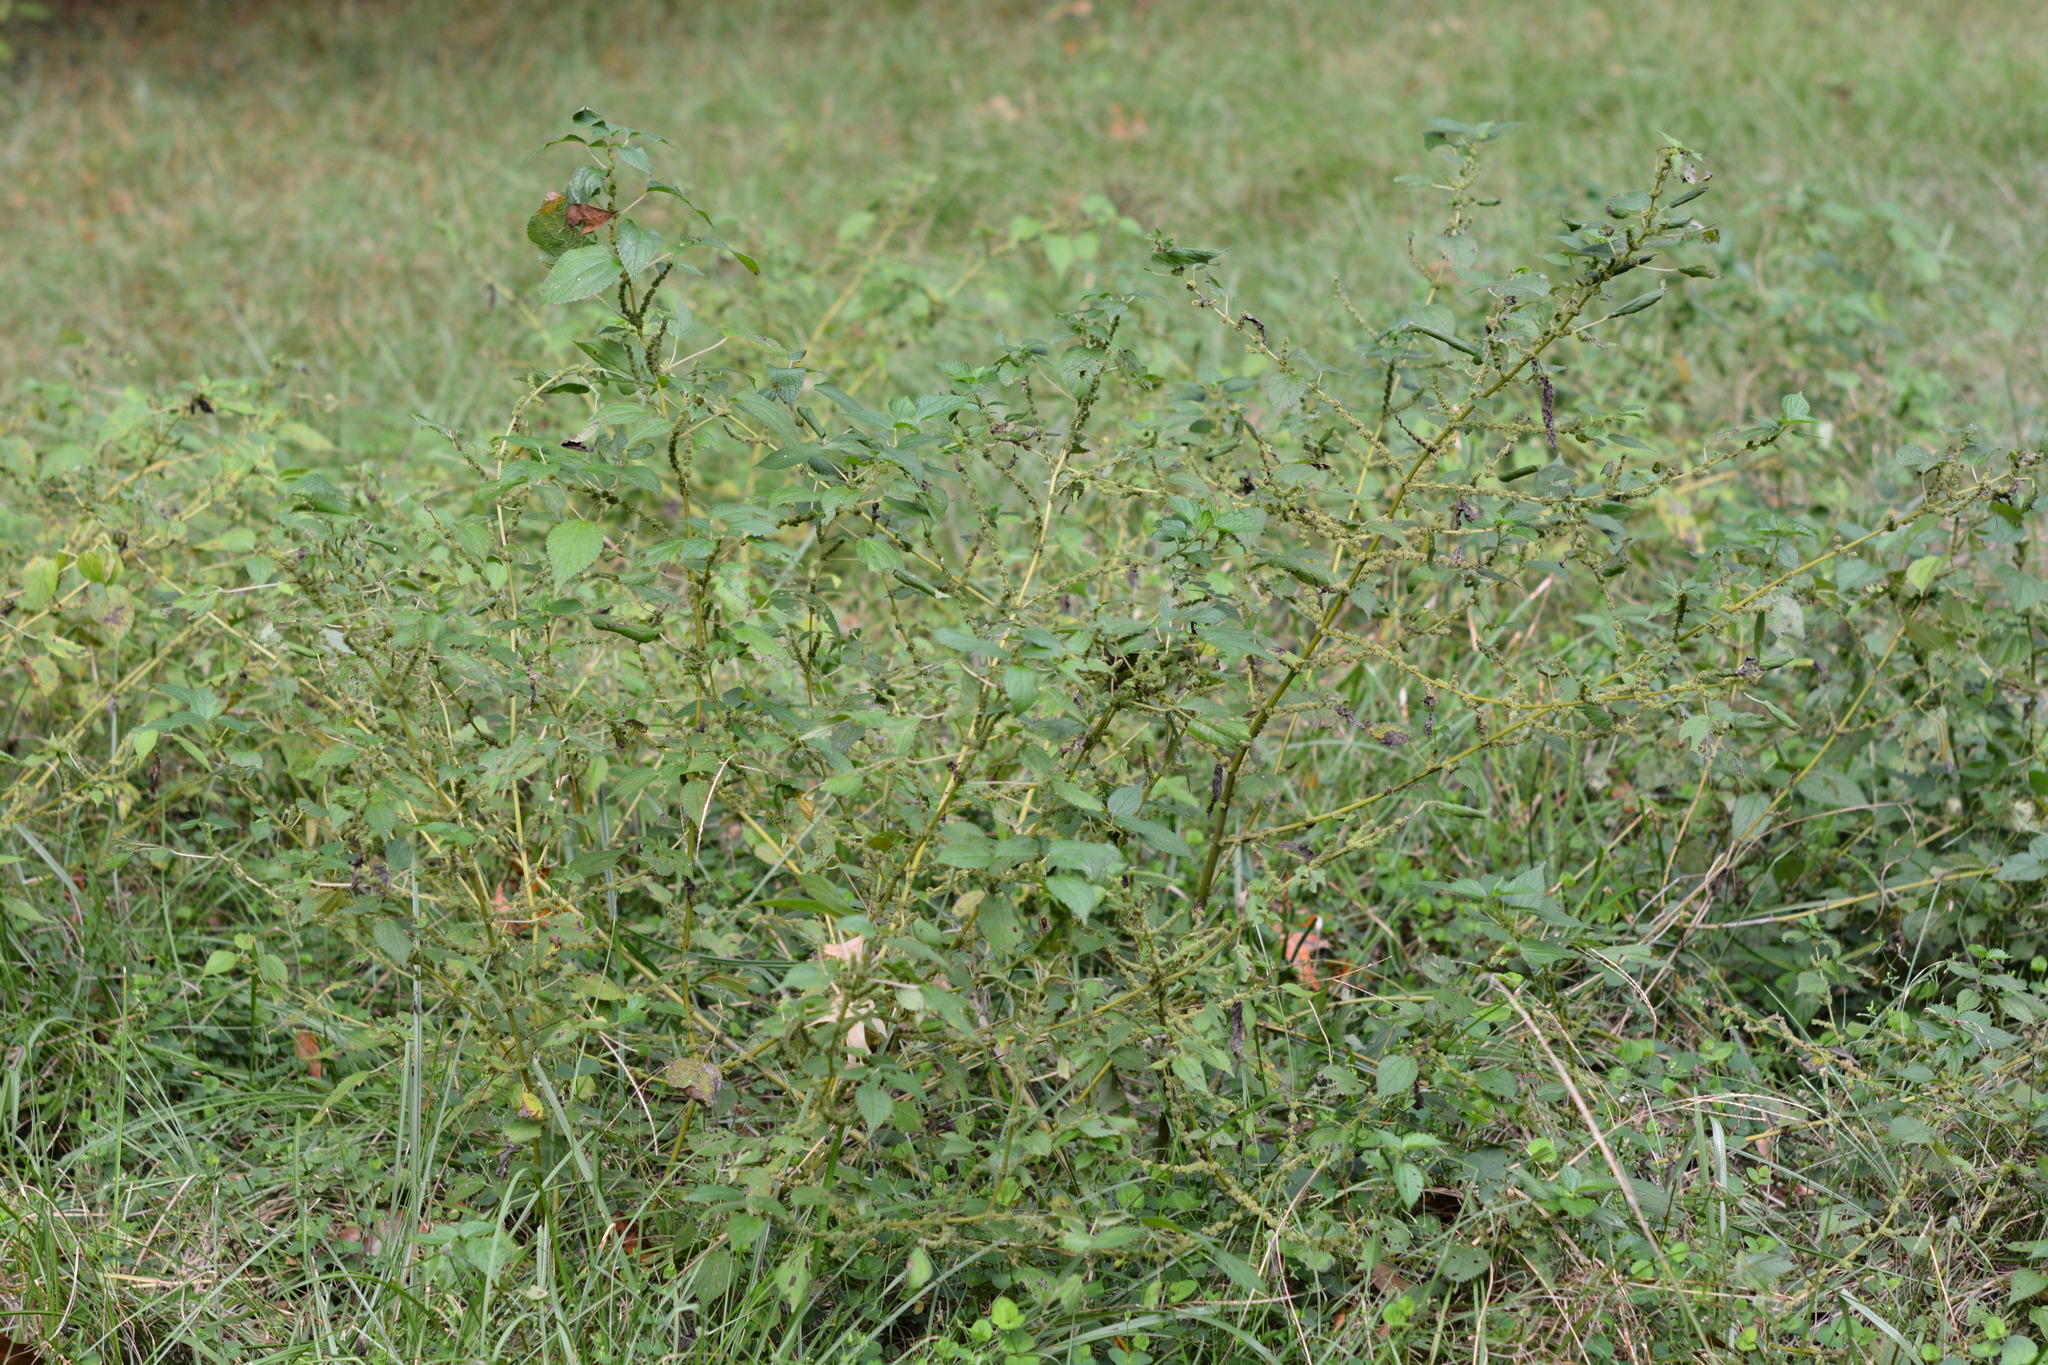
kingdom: Plantae
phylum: Tracheophyta
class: Magnoliopsida
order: Rosales
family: Urticaceae
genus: Boehmeria
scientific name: Boehmeria cylindrica
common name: Bog-hemp
